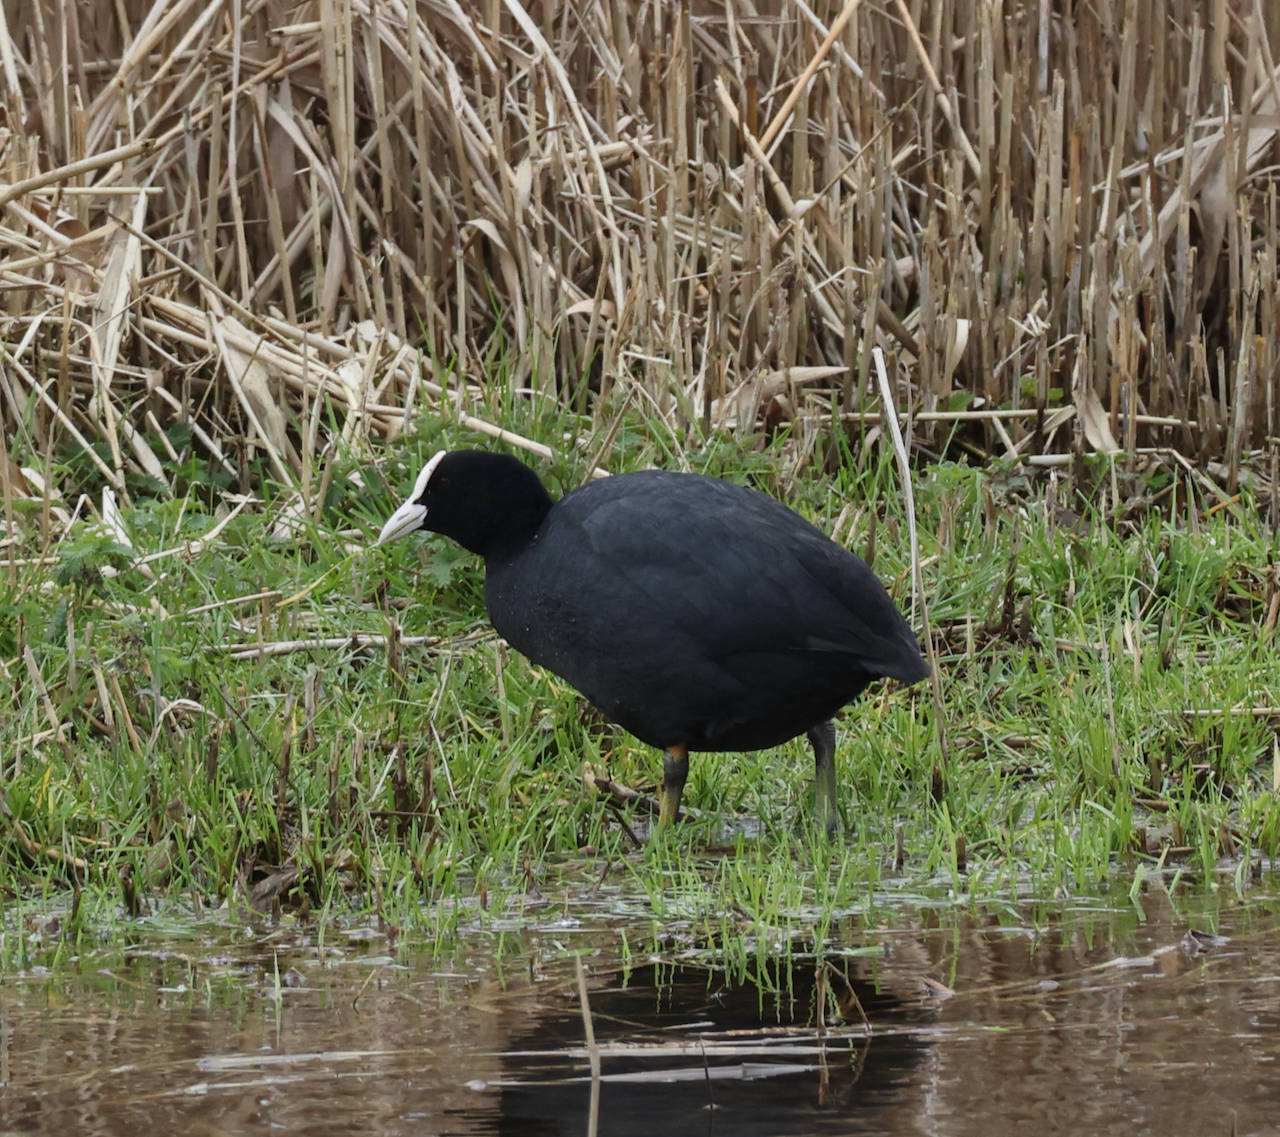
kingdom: Animalia
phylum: Chordata
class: Aves
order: Gruiformes
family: Rallidae
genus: Fulica
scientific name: Fulica atra
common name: Eurasian coot
